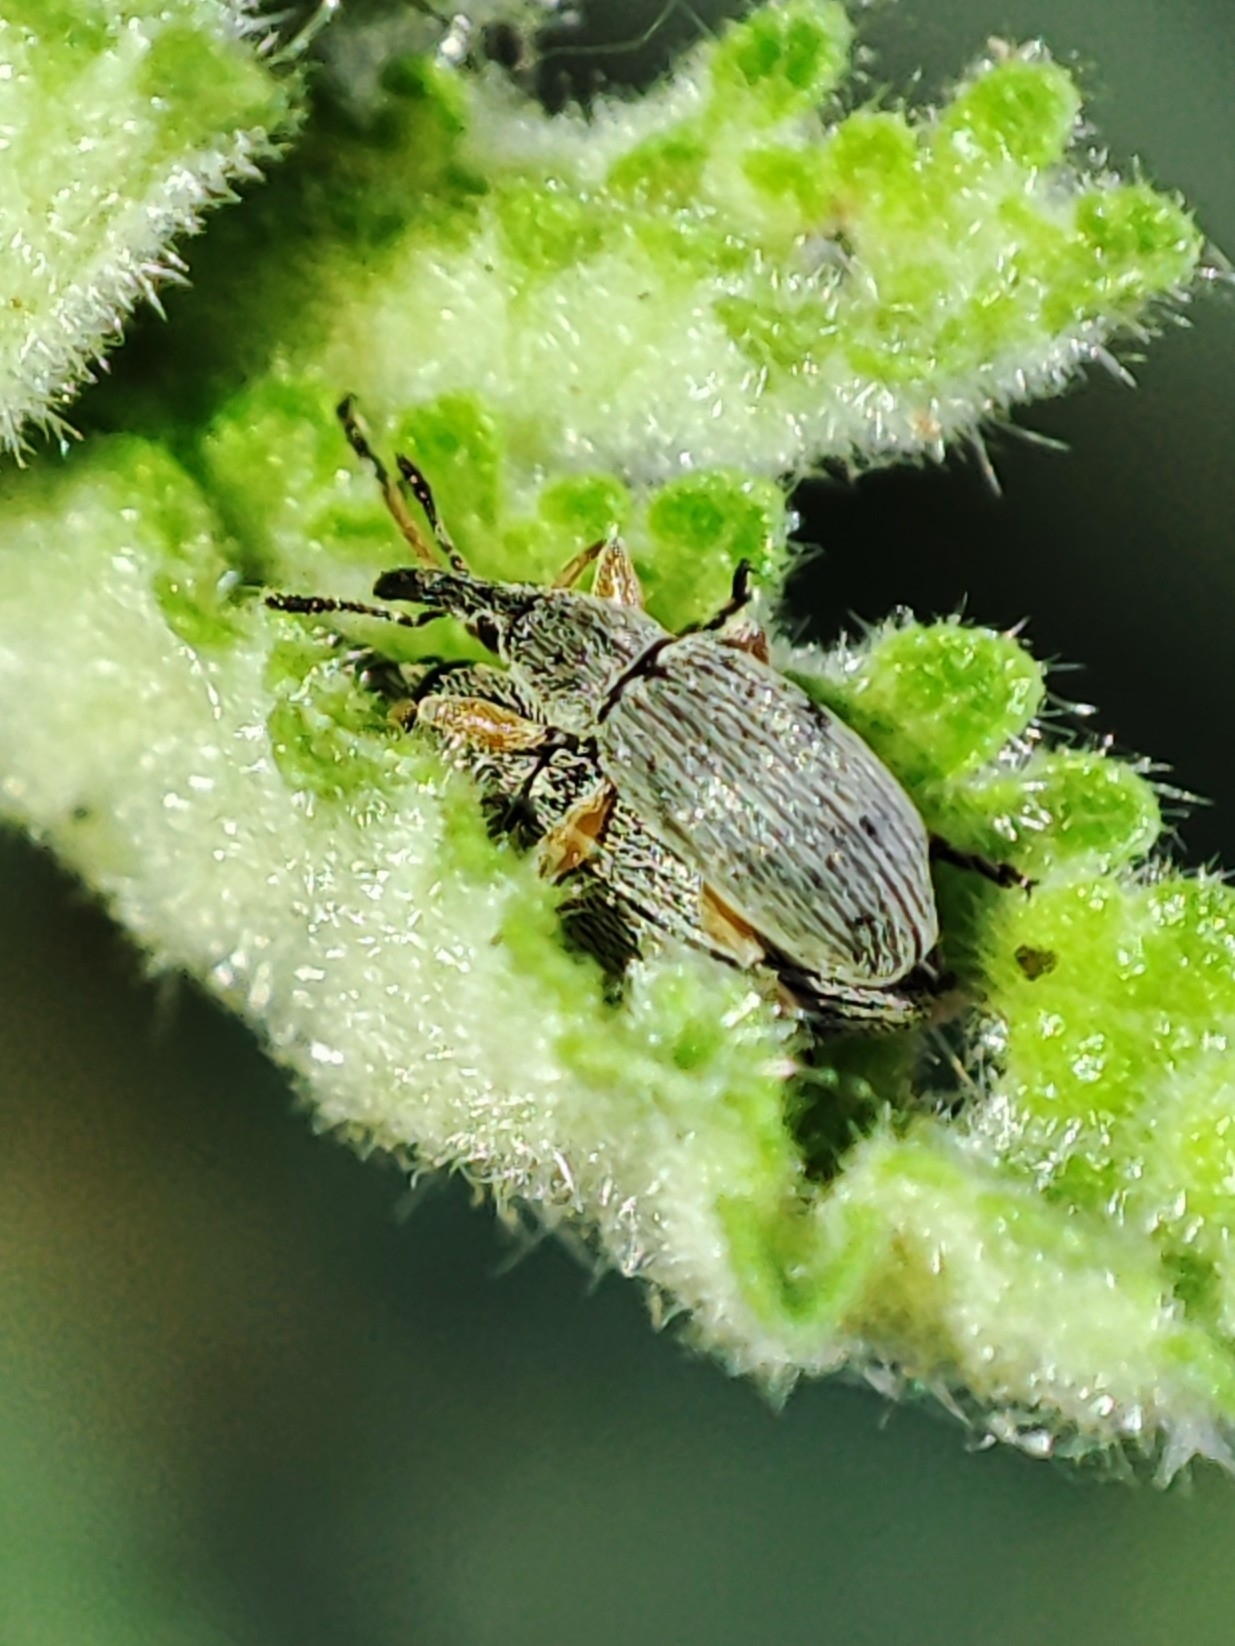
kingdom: Animalia
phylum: Arthropoda
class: Insecta
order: Coleoptera
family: Brentidae
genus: Rhopalapion
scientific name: Rhopalapion longirostre
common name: Hollyhock weevil
